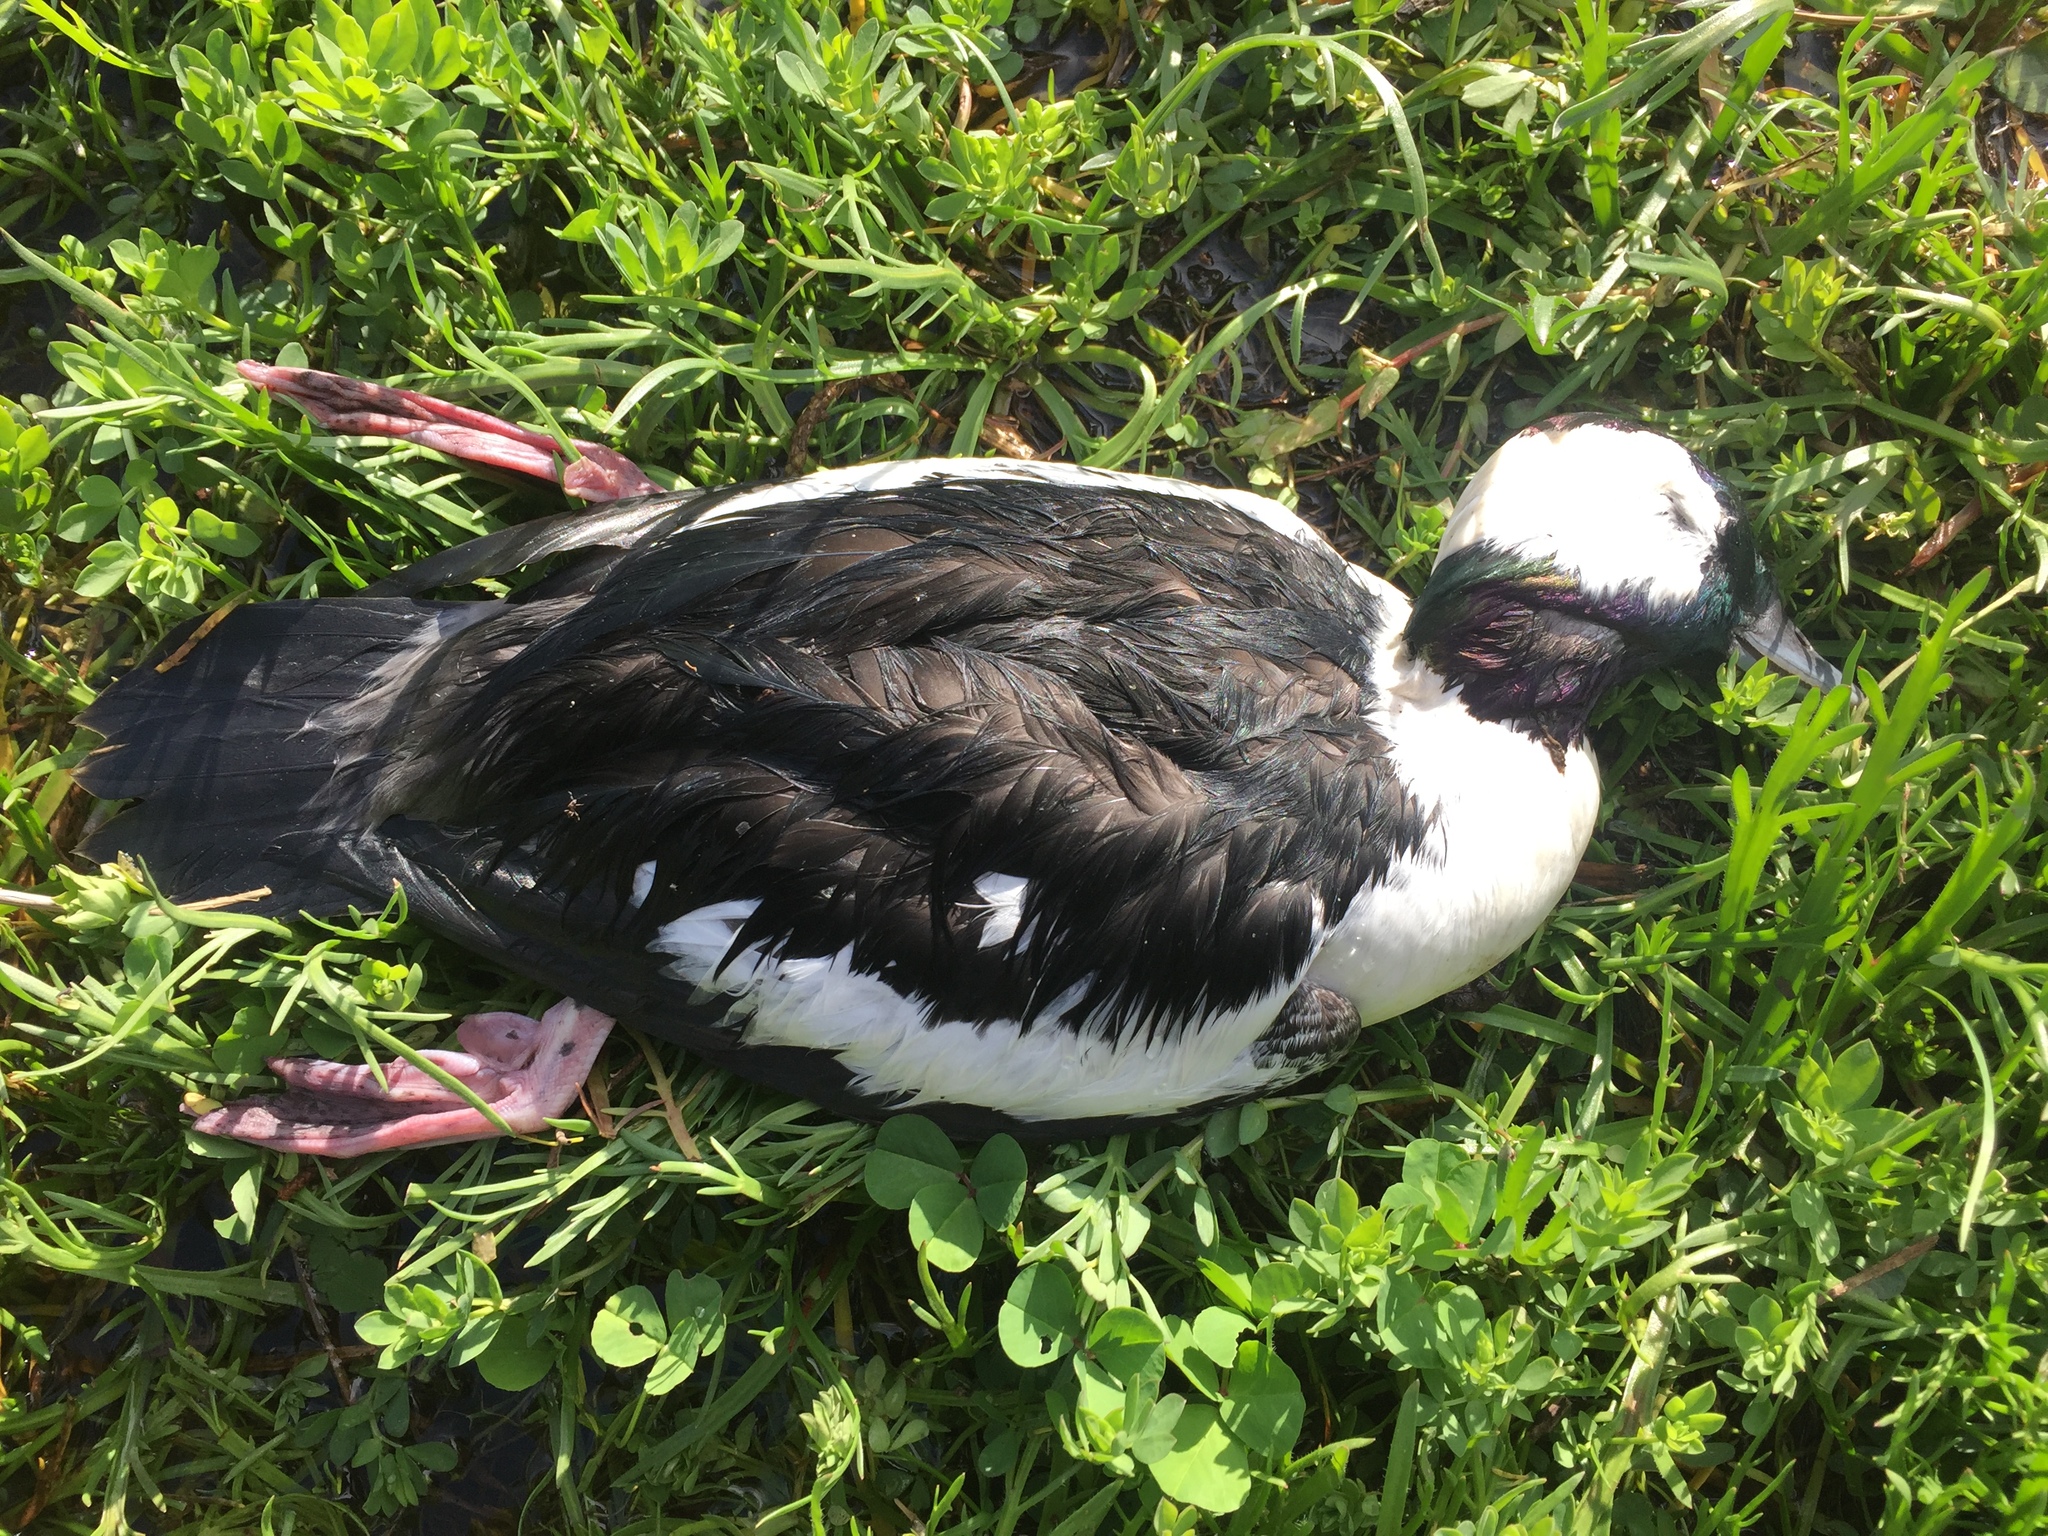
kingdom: Animalia
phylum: Chordata
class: Aves
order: Anseriformes
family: Anatidae
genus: Bucephala
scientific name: Bucephala albeola
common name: Bufflehead
